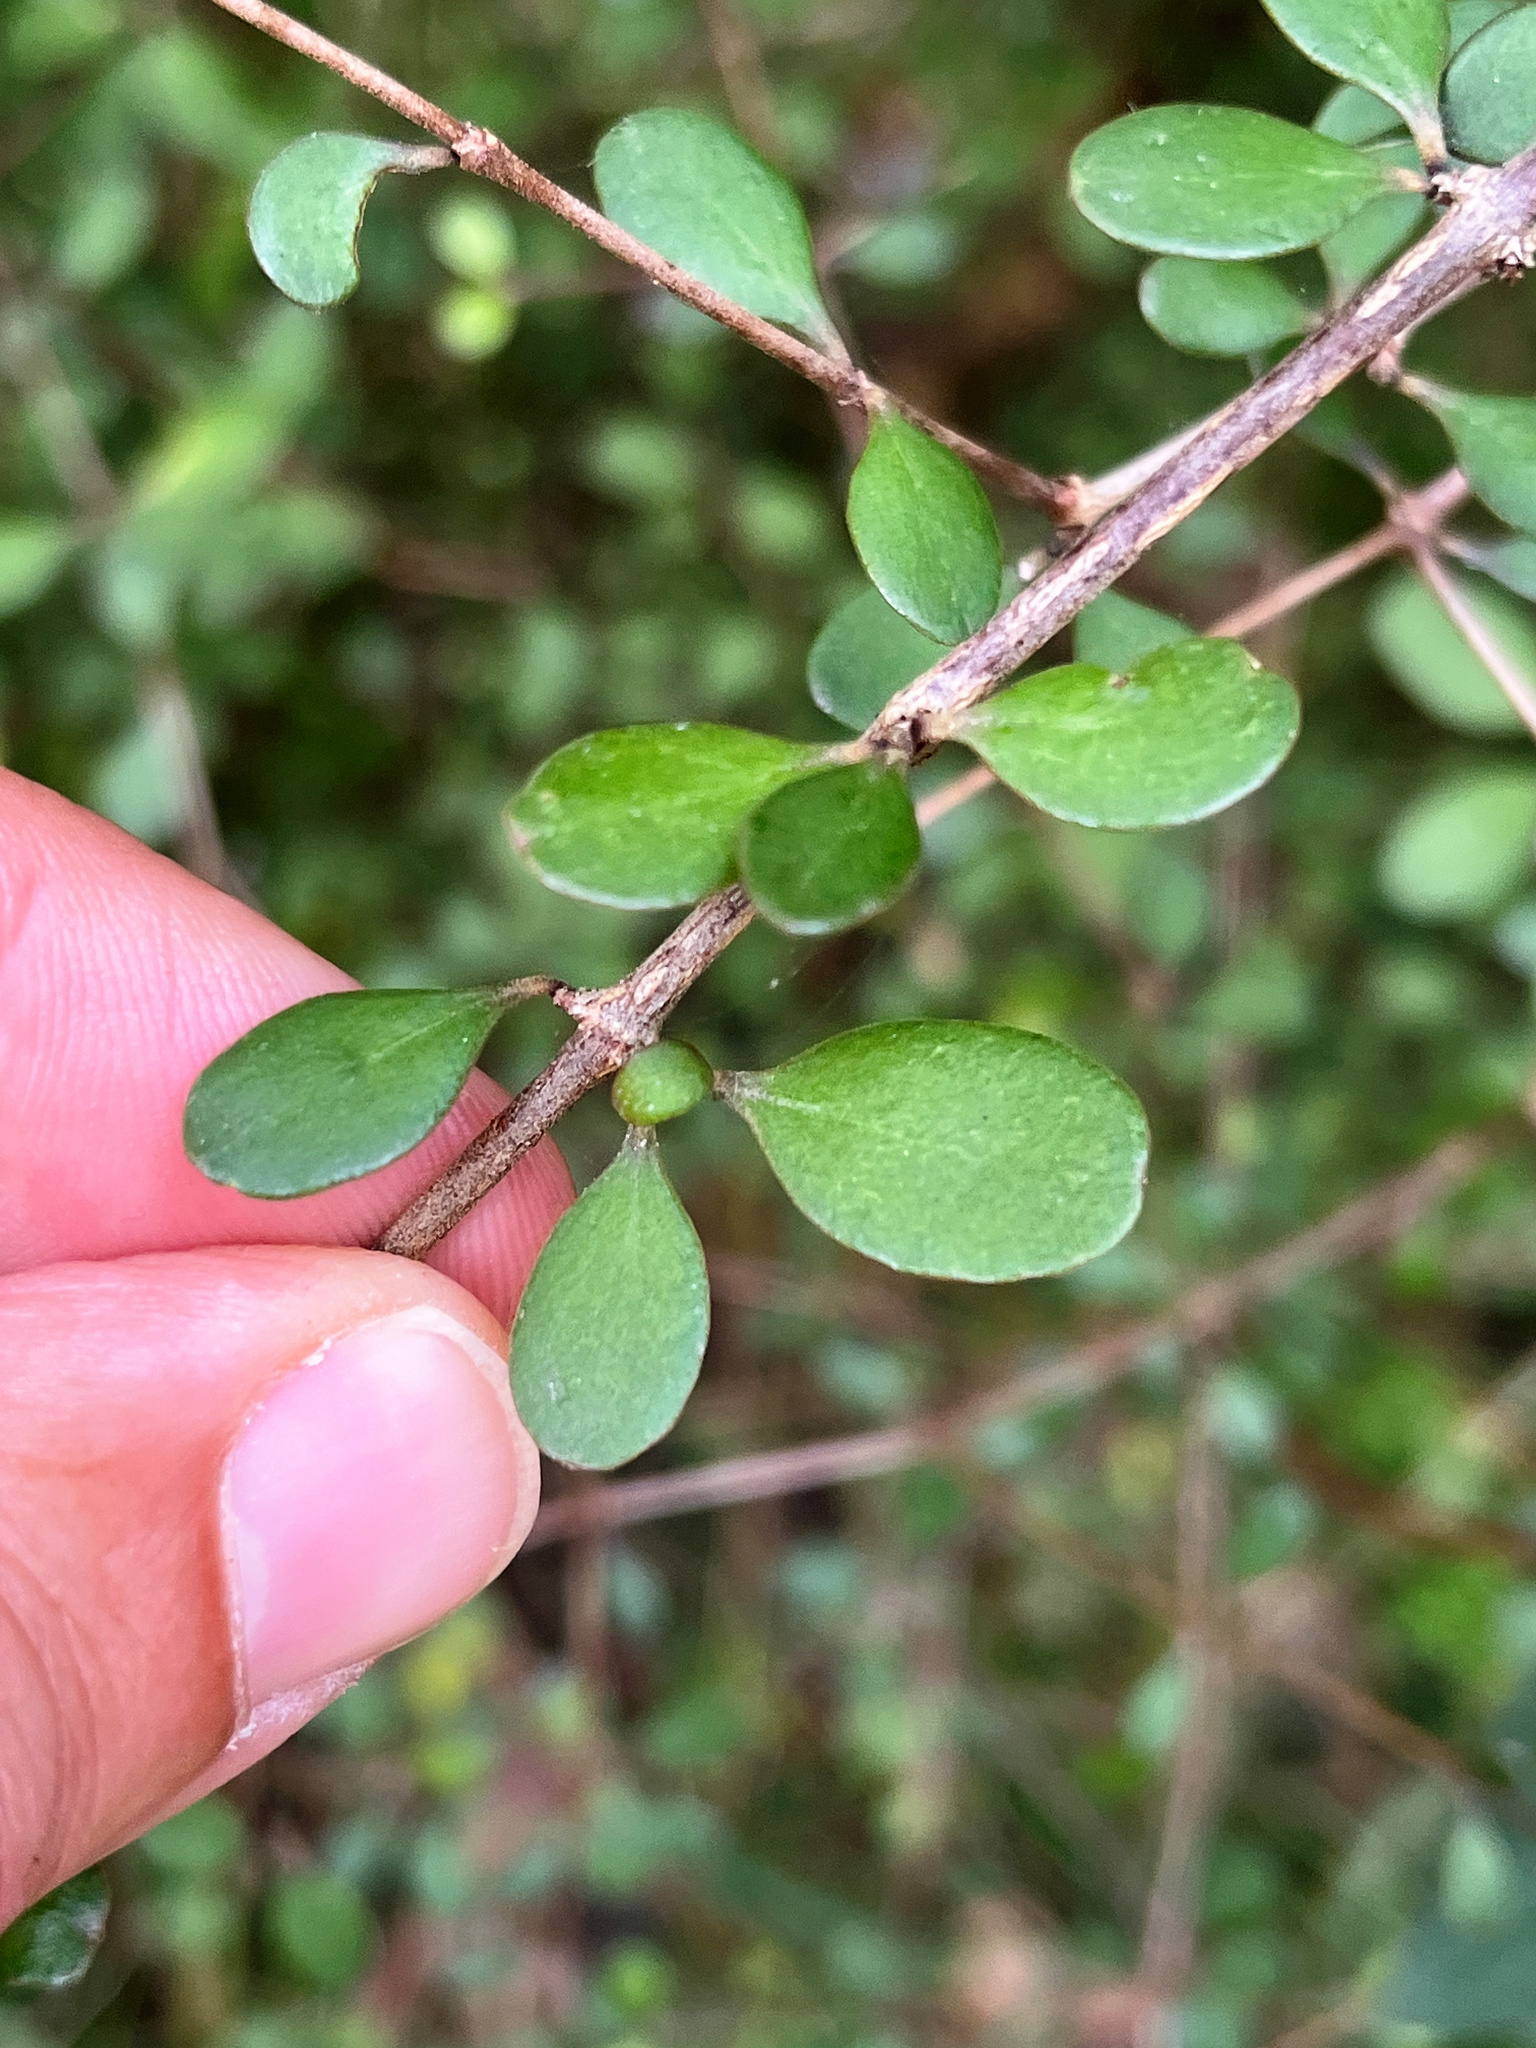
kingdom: Plantae
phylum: Tracheophyta
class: Magnoliopsida
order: Gentianales
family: Rubiaceae
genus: Coprosma
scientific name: Coprosma crassifolia
